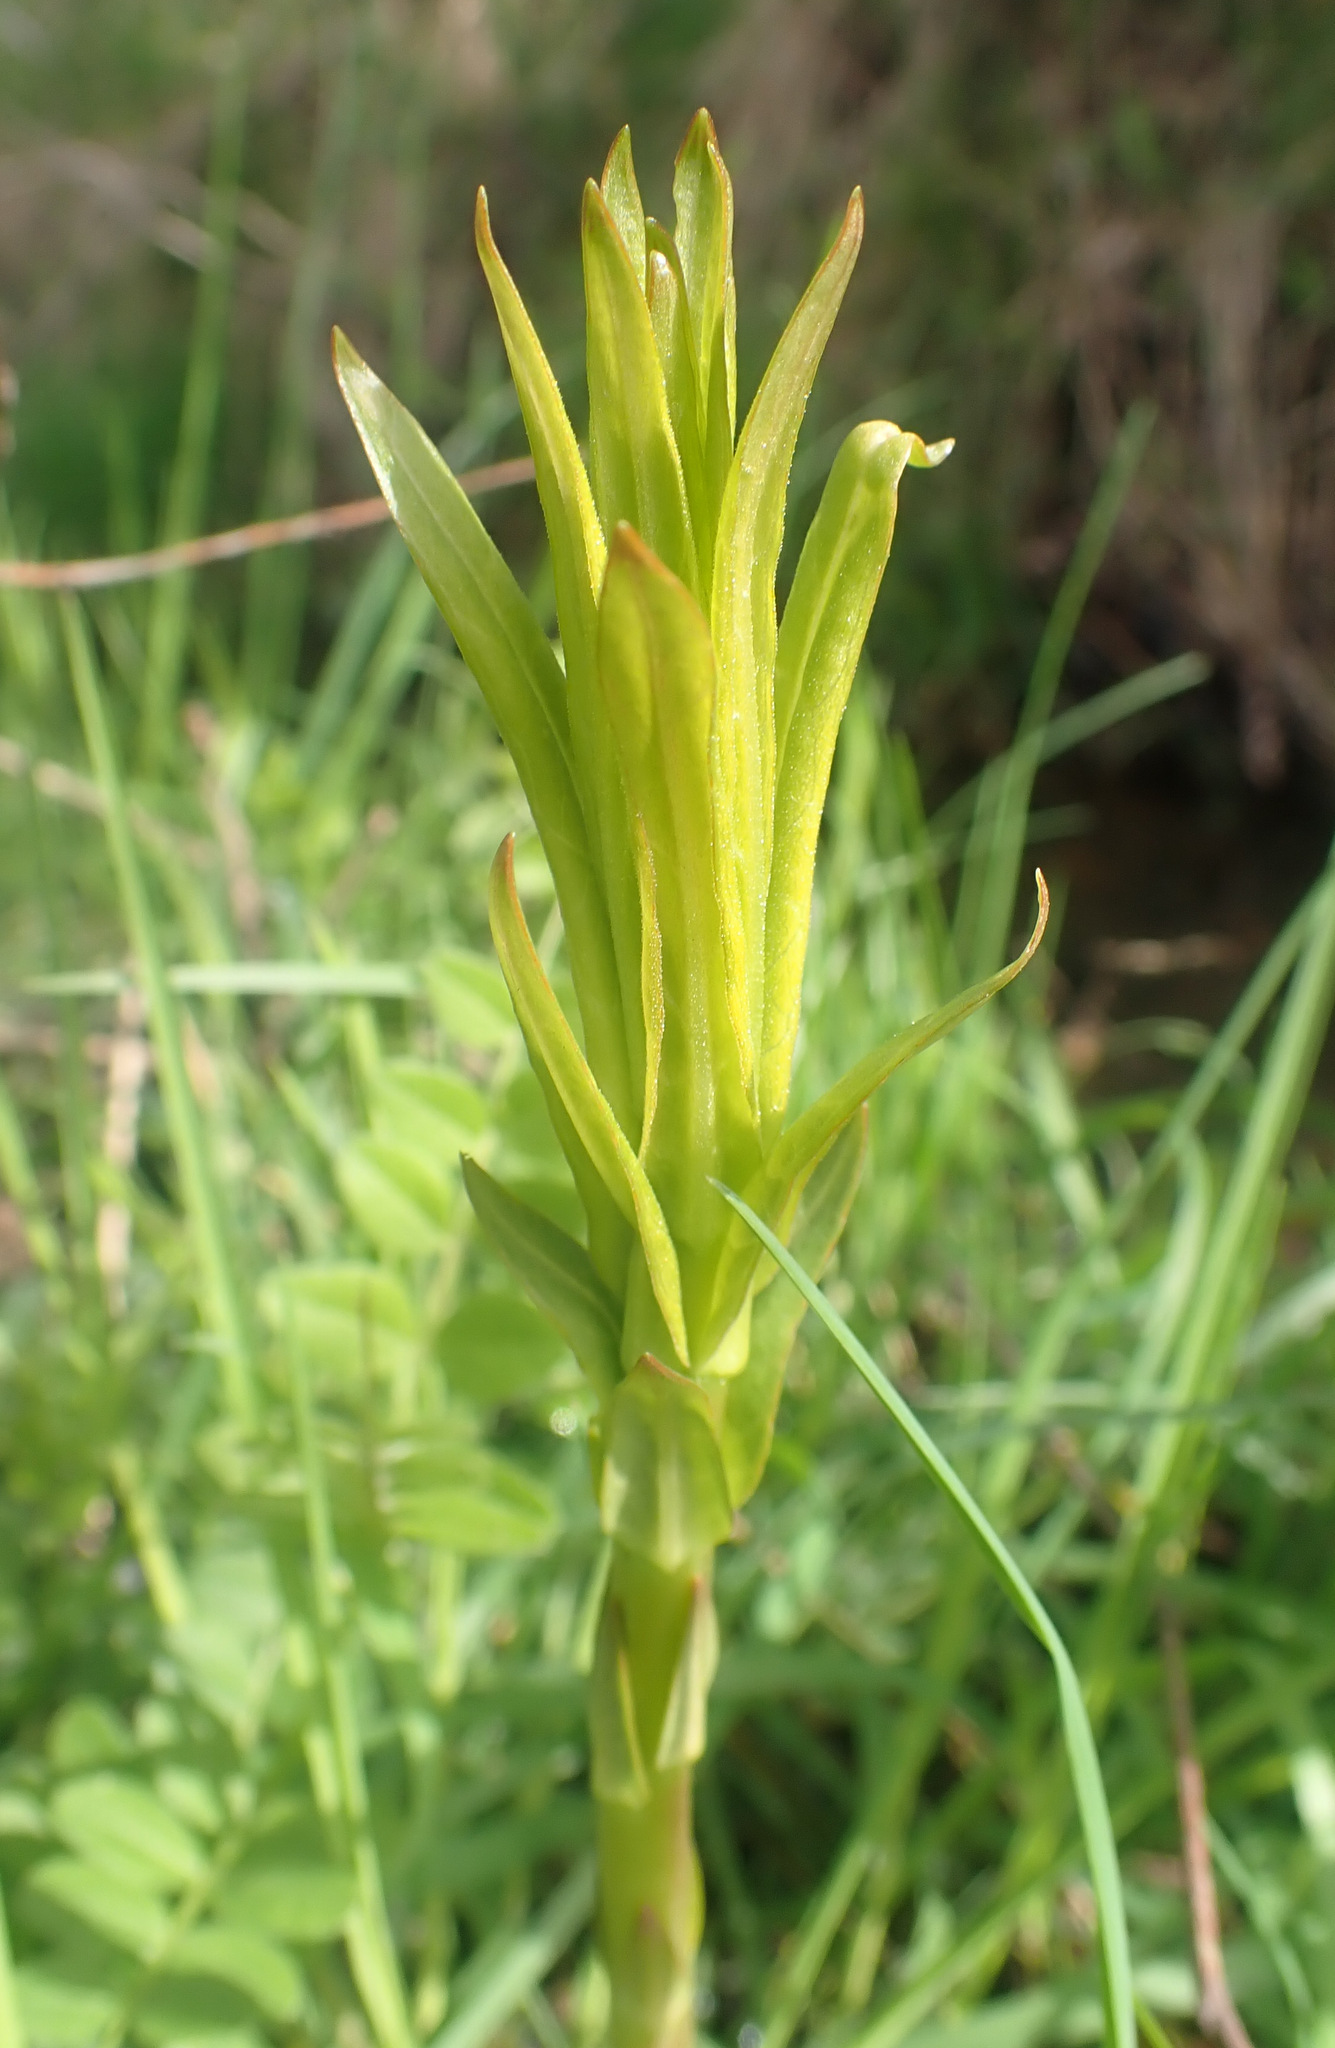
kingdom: Plantae
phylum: Tracheophyta
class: Magnoliopsida
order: Ericales
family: Primulaceae
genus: Lysimachia
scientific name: Lysimachia vulgaris
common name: Yellow loosestrife
